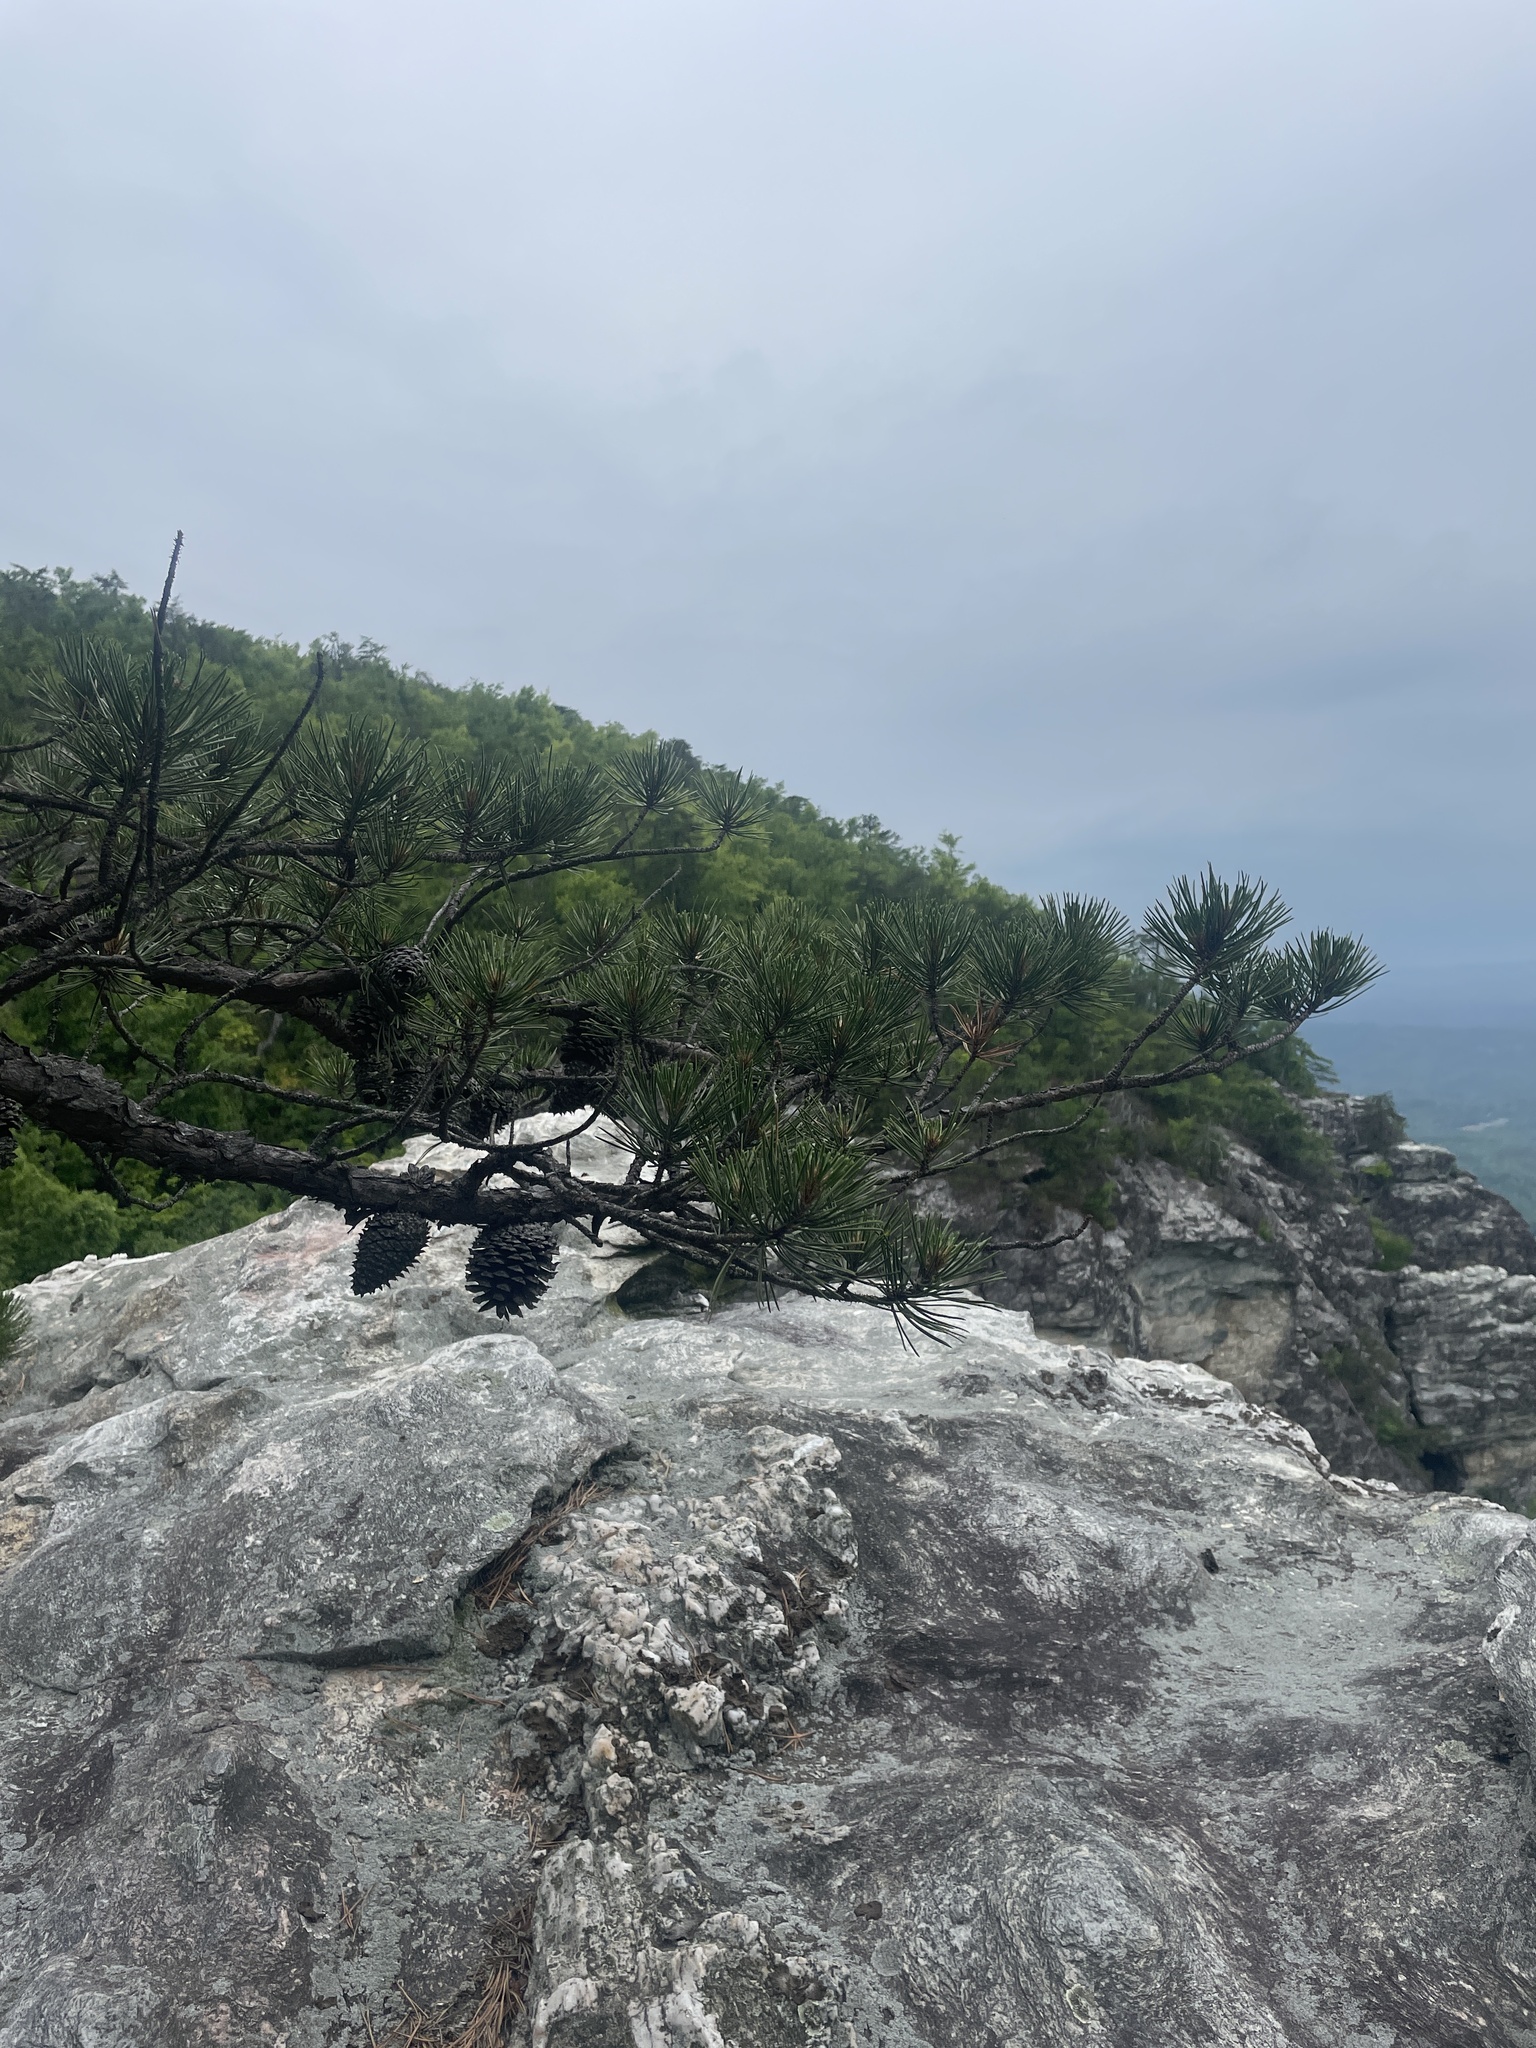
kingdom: Plantae
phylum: Tracheophyta
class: Pinopsida
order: Pinales
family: Pinaceae
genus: Pinus
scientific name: Pinus pungens
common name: Hickory pine
